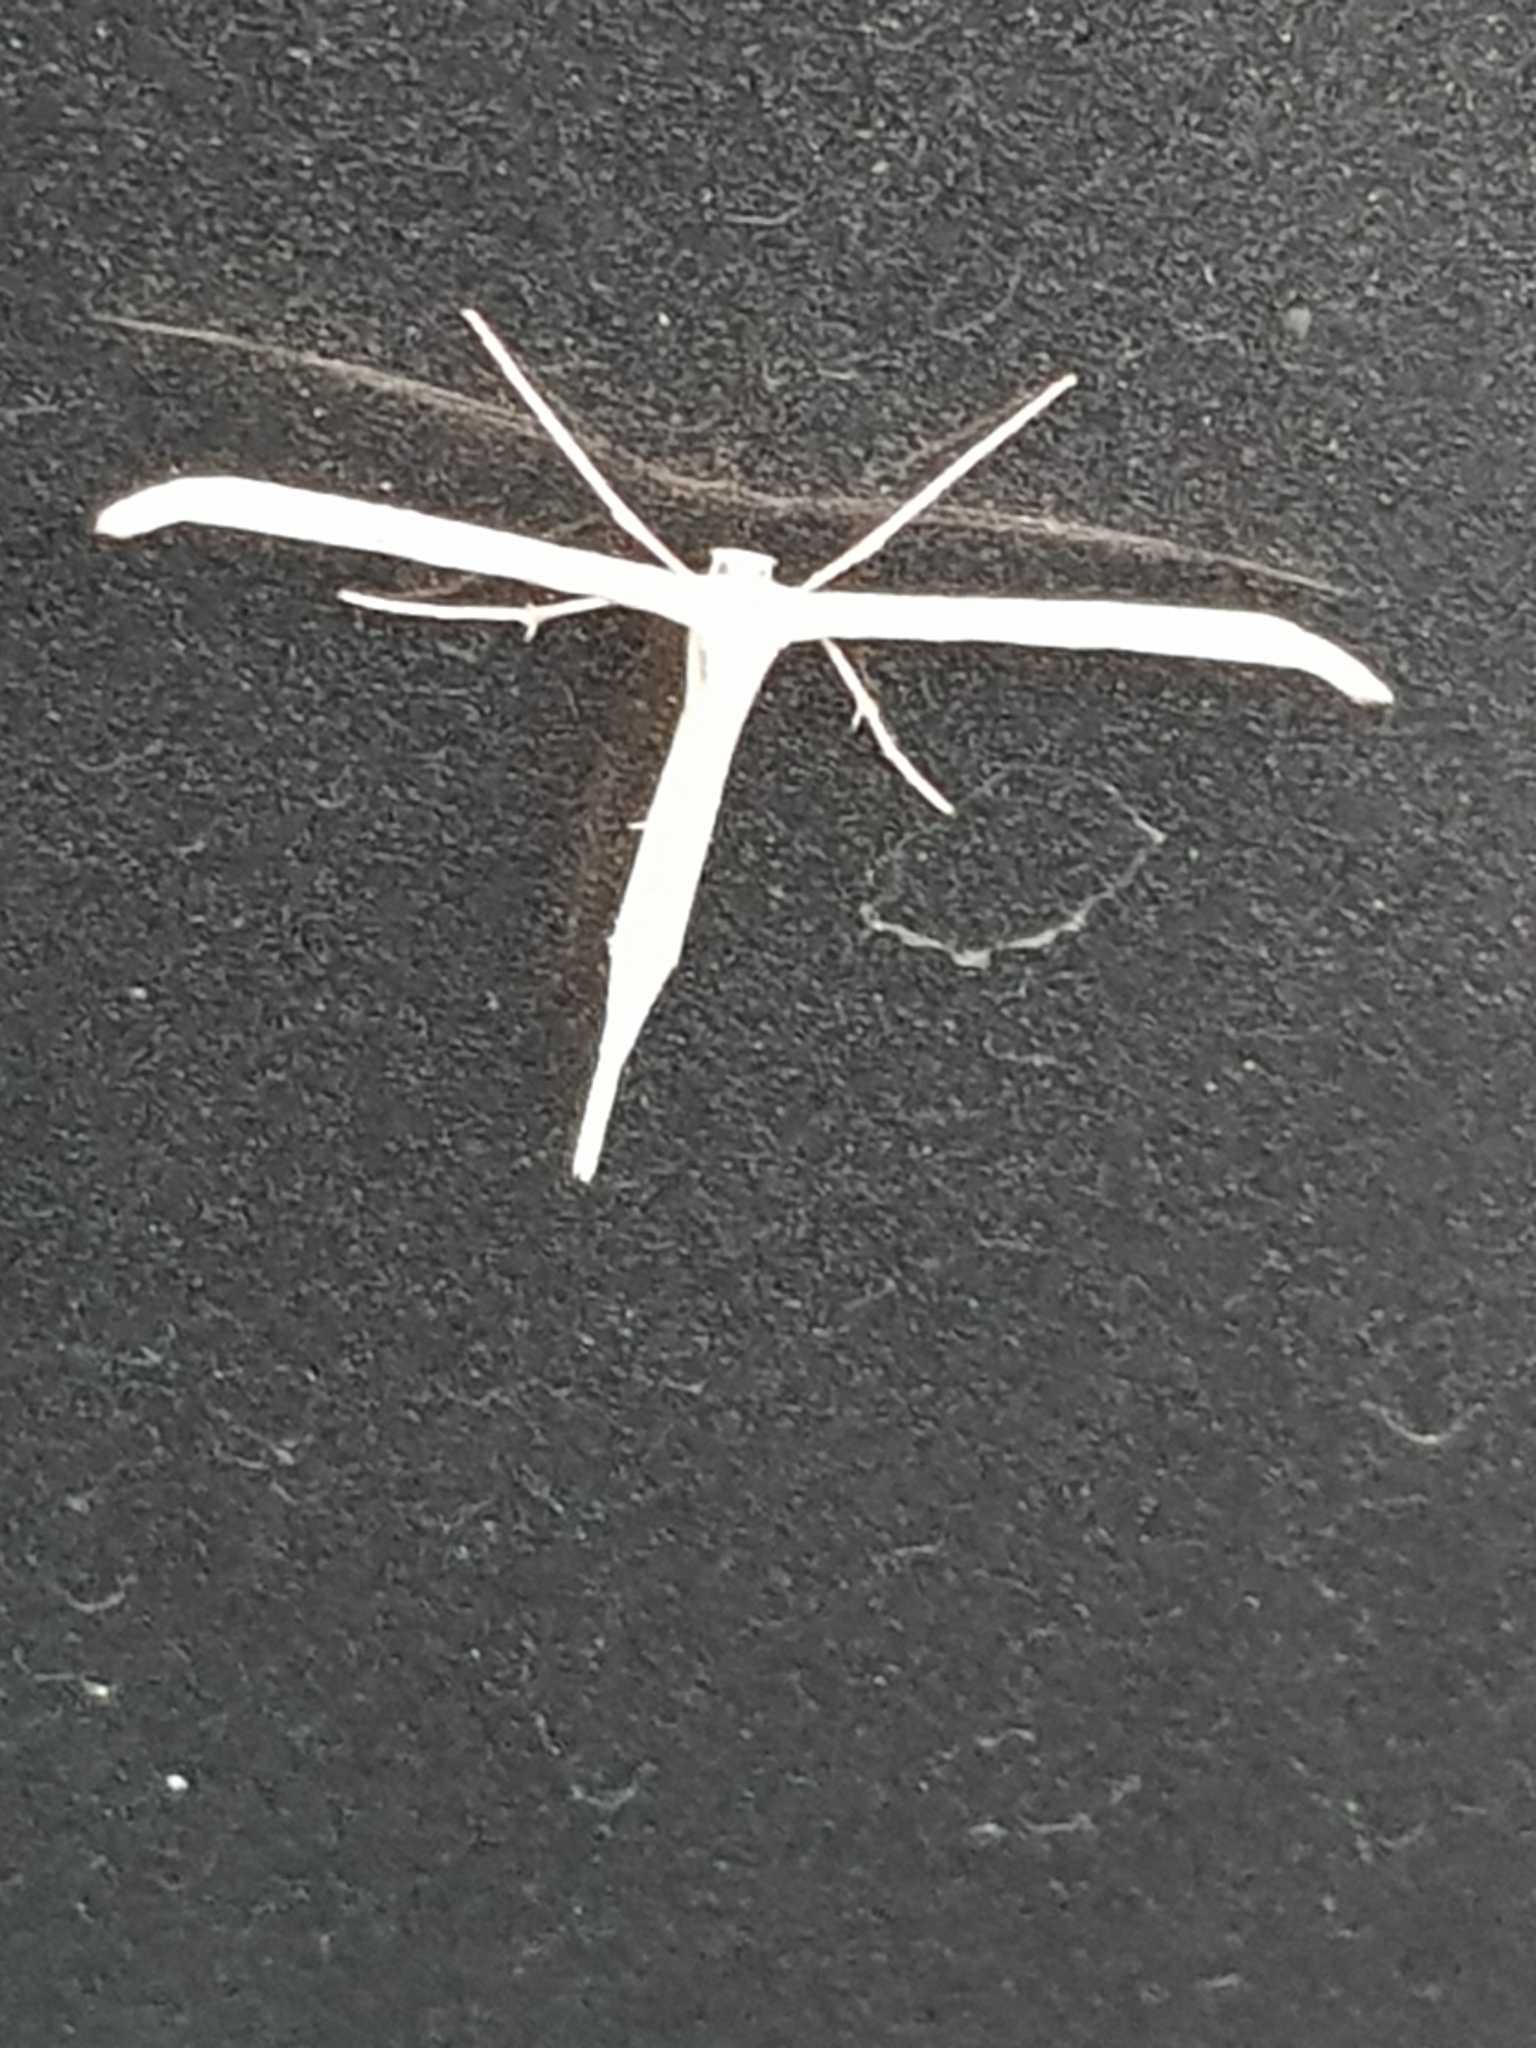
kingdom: Animalia
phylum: Arthropoda
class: Insecta
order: Lepidoptera
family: Pterophoridae
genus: Emmelina
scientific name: Emmelina monodactyla
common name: Common plume
